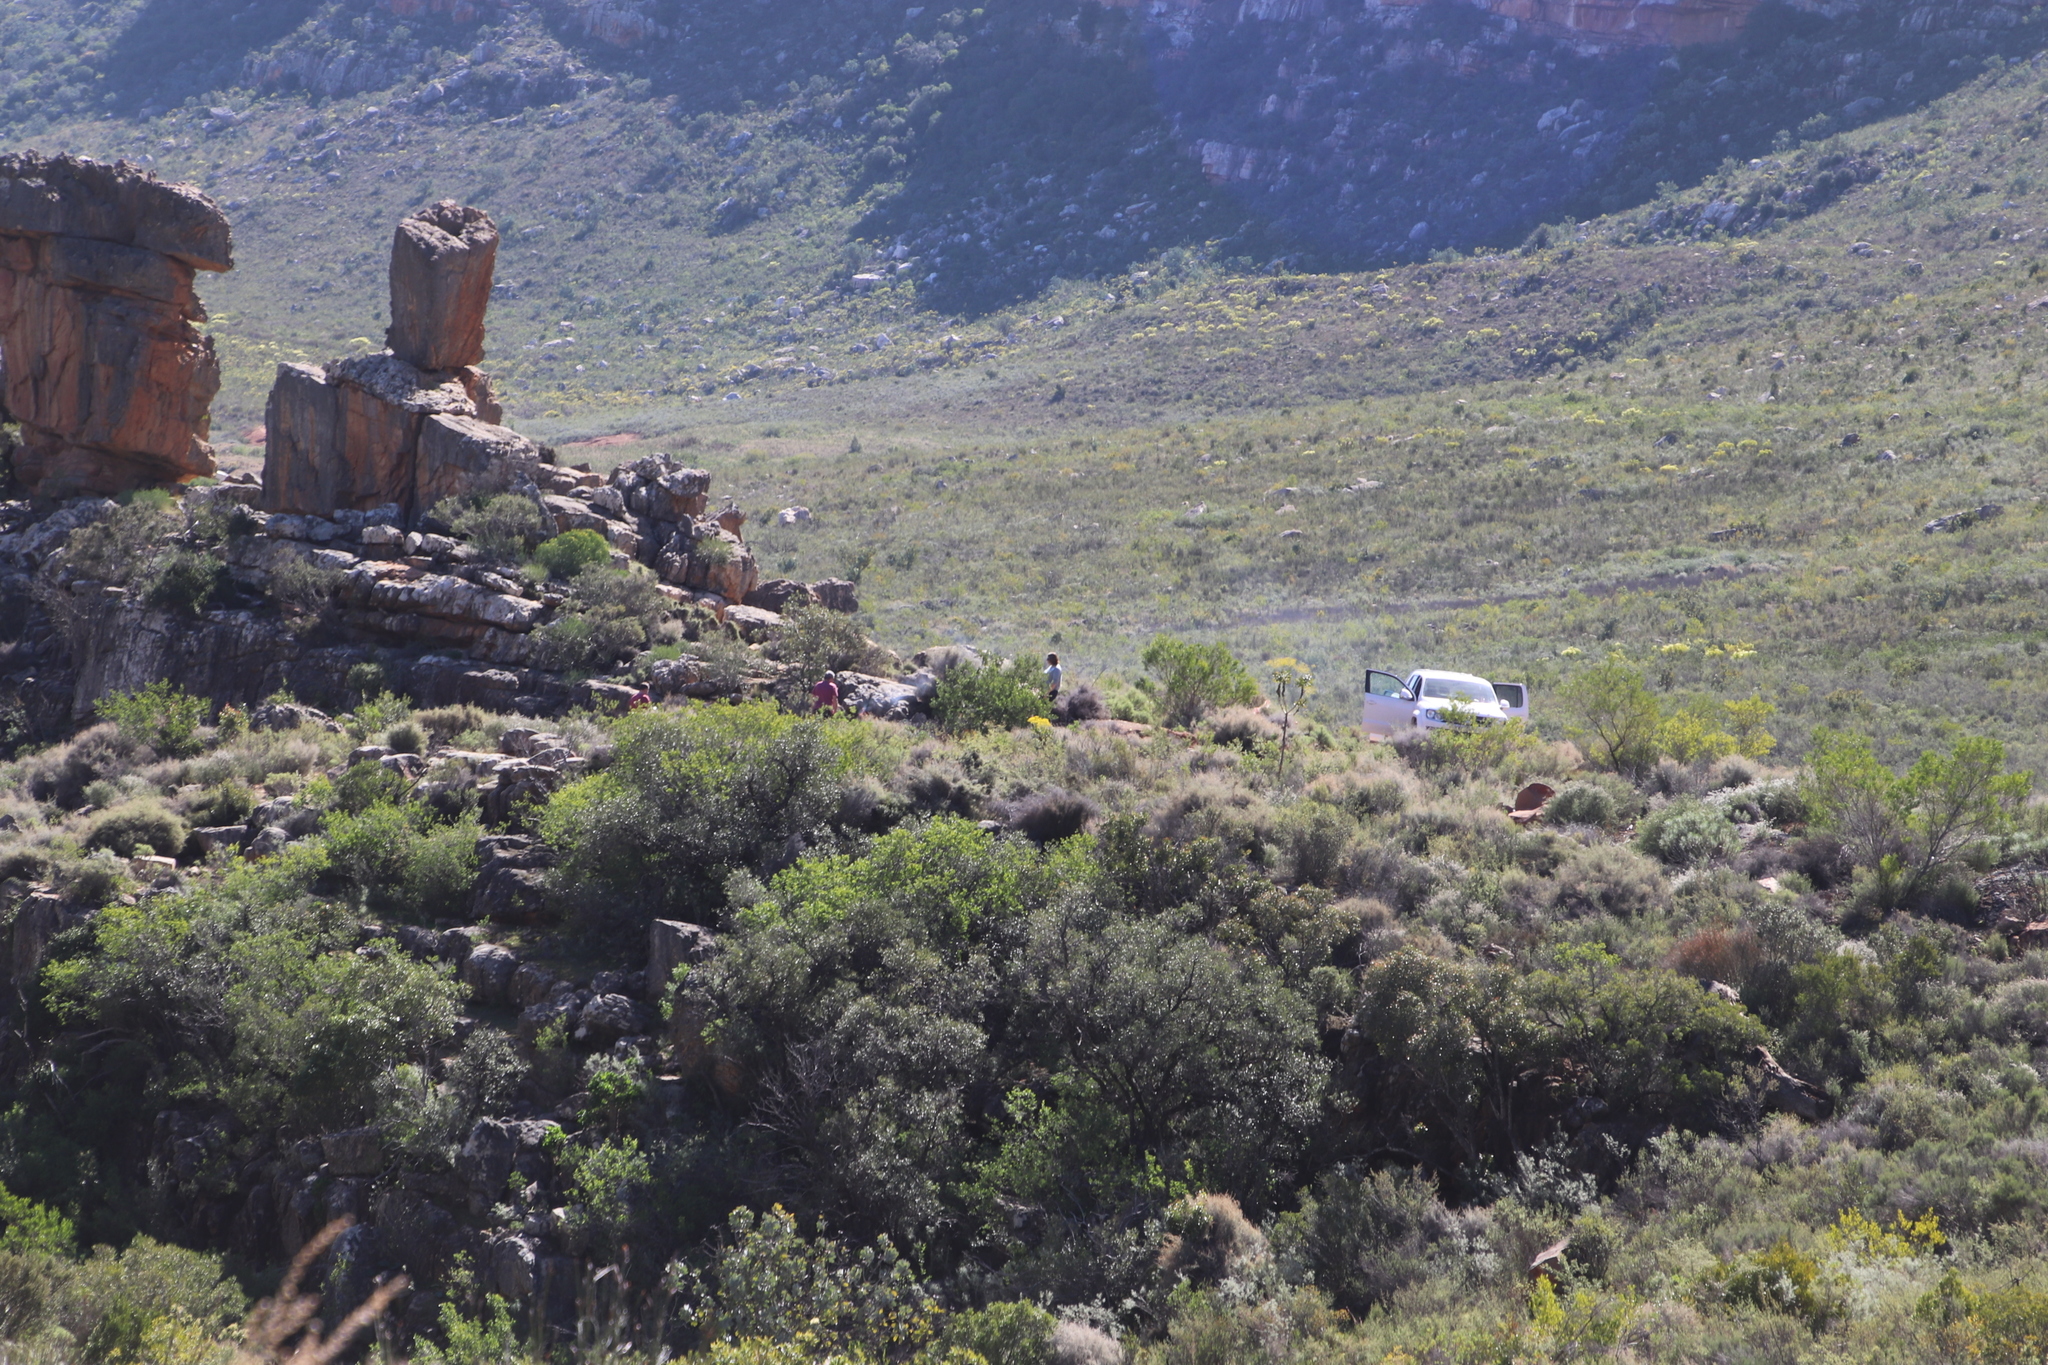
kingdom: Plantae
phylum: Tracheophyta
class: Magnoliopsida
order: Asterales
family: Asteraceae
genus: Othonna
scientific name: Othonna parviflora
